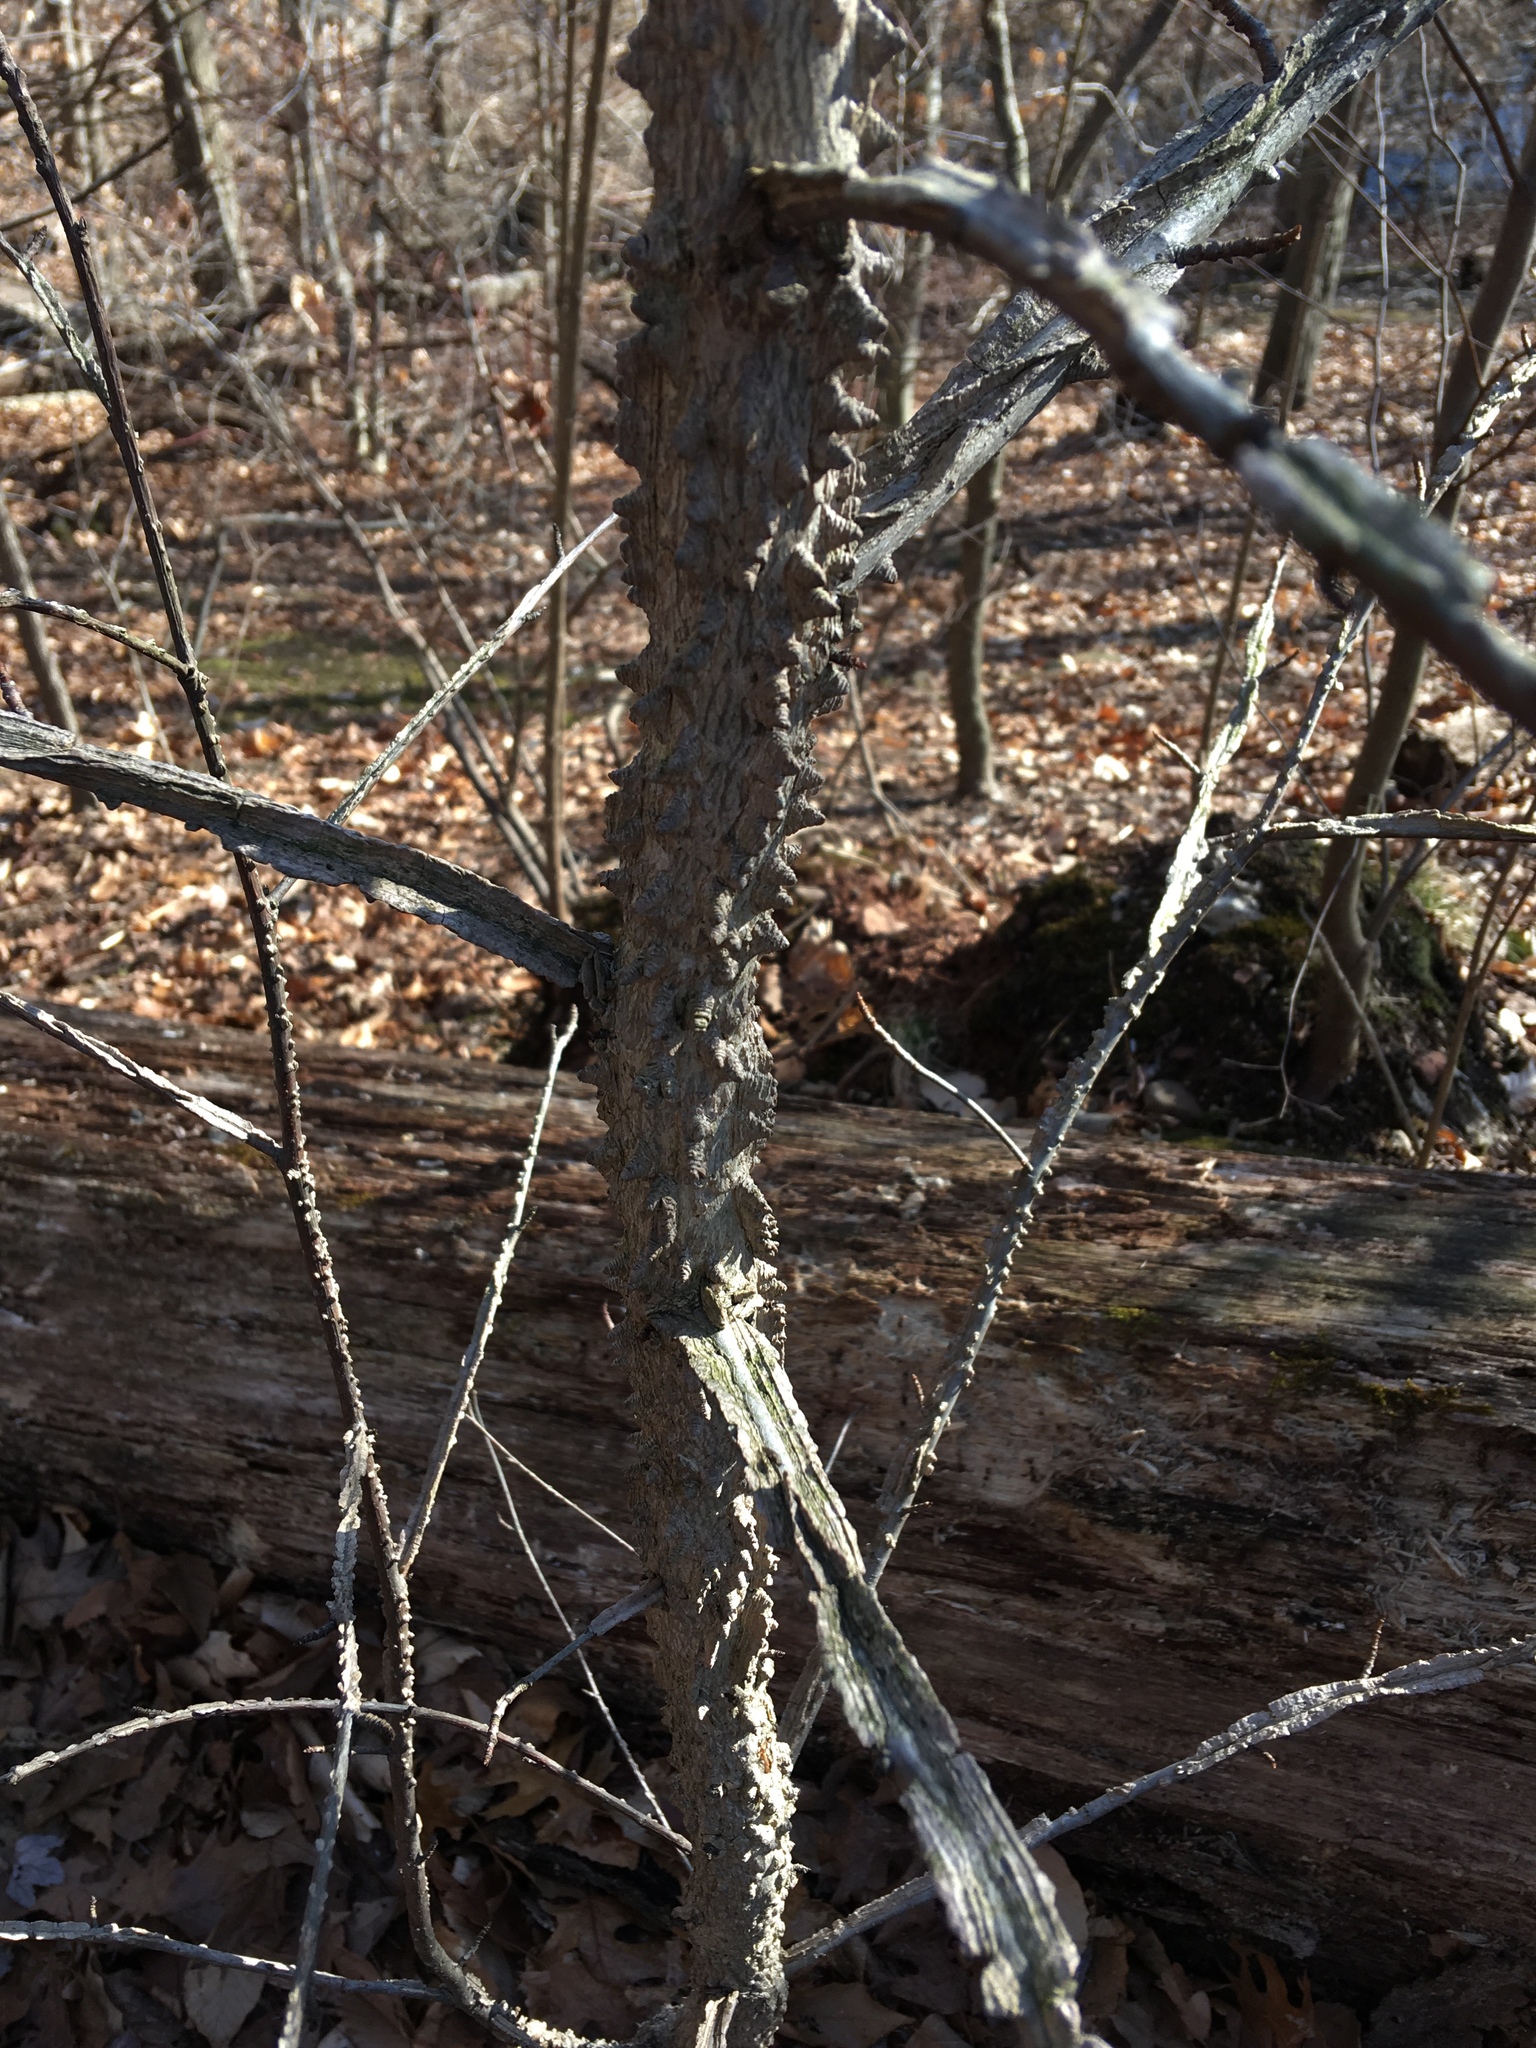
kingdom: Plantae
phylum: Tracheophyta
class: Magnoliopsida
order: Saxifragales
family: Altingiaceae
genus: Liquidambar
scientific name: Liquidambar styraciflua
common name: Sweet gum
